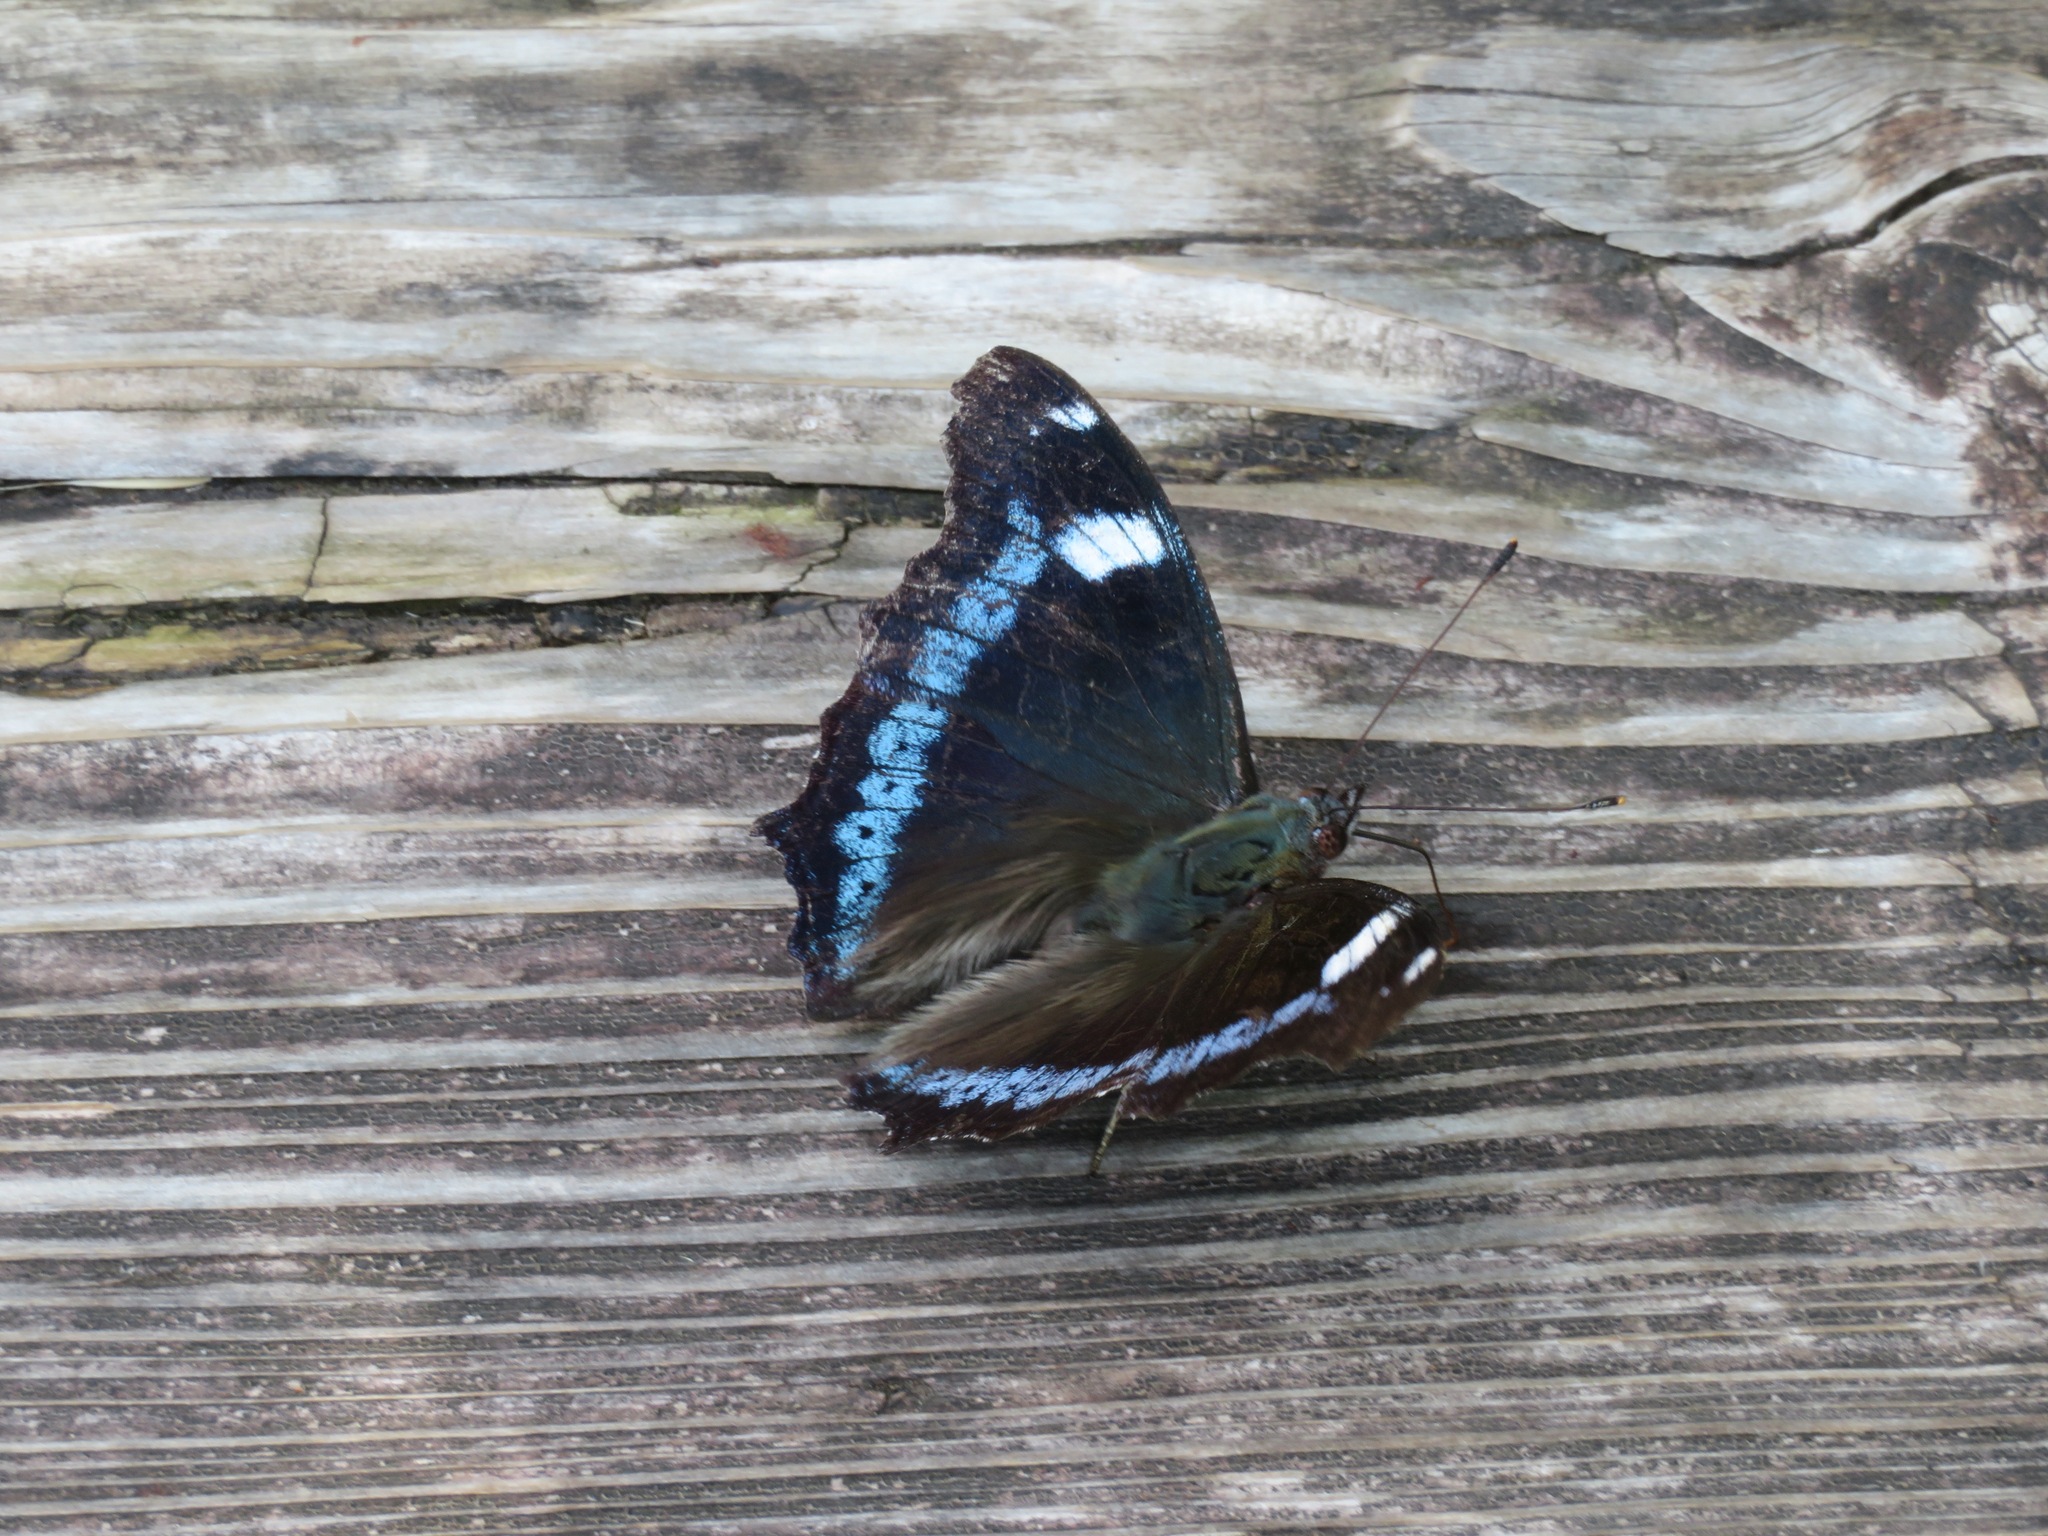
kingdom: Animalia
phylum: Arthropoda
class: Insecta
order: Lepidoptera
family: Nymphalidae
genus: Vanessa
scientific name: Vanessa Kaniska canace
